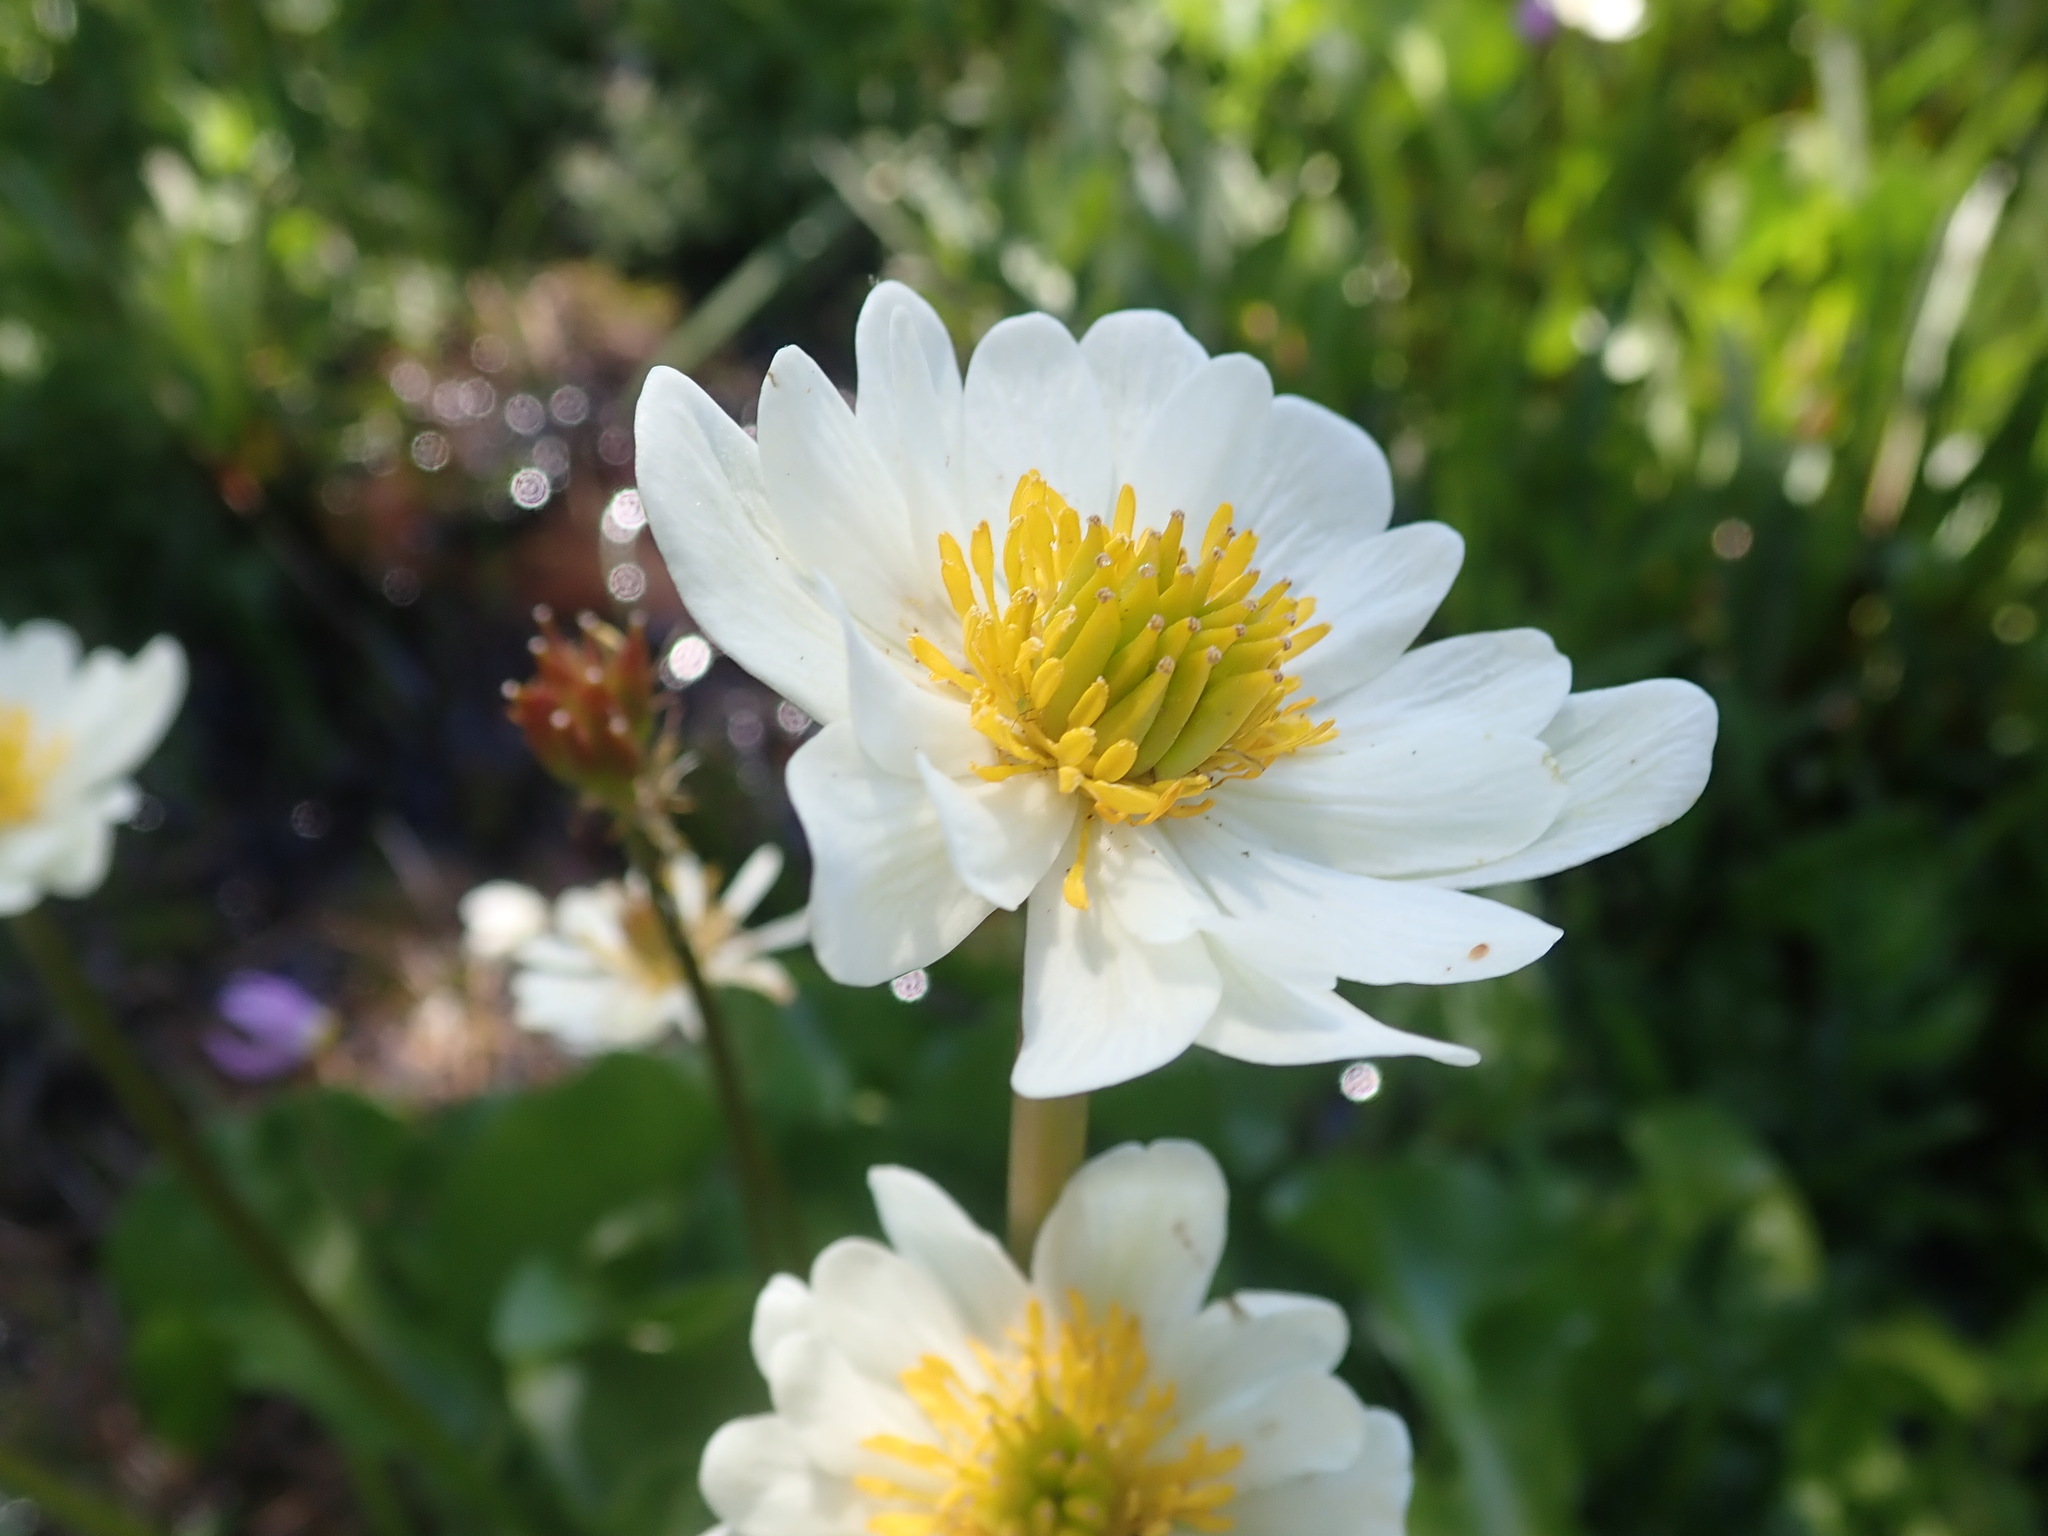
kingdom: Plantae
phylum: Tracheophyta
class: Magnoliopsida
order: Ranunculales
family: Ranunculaceae
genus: Caltha
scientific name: Caltha leptosepala
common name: Elkslip
